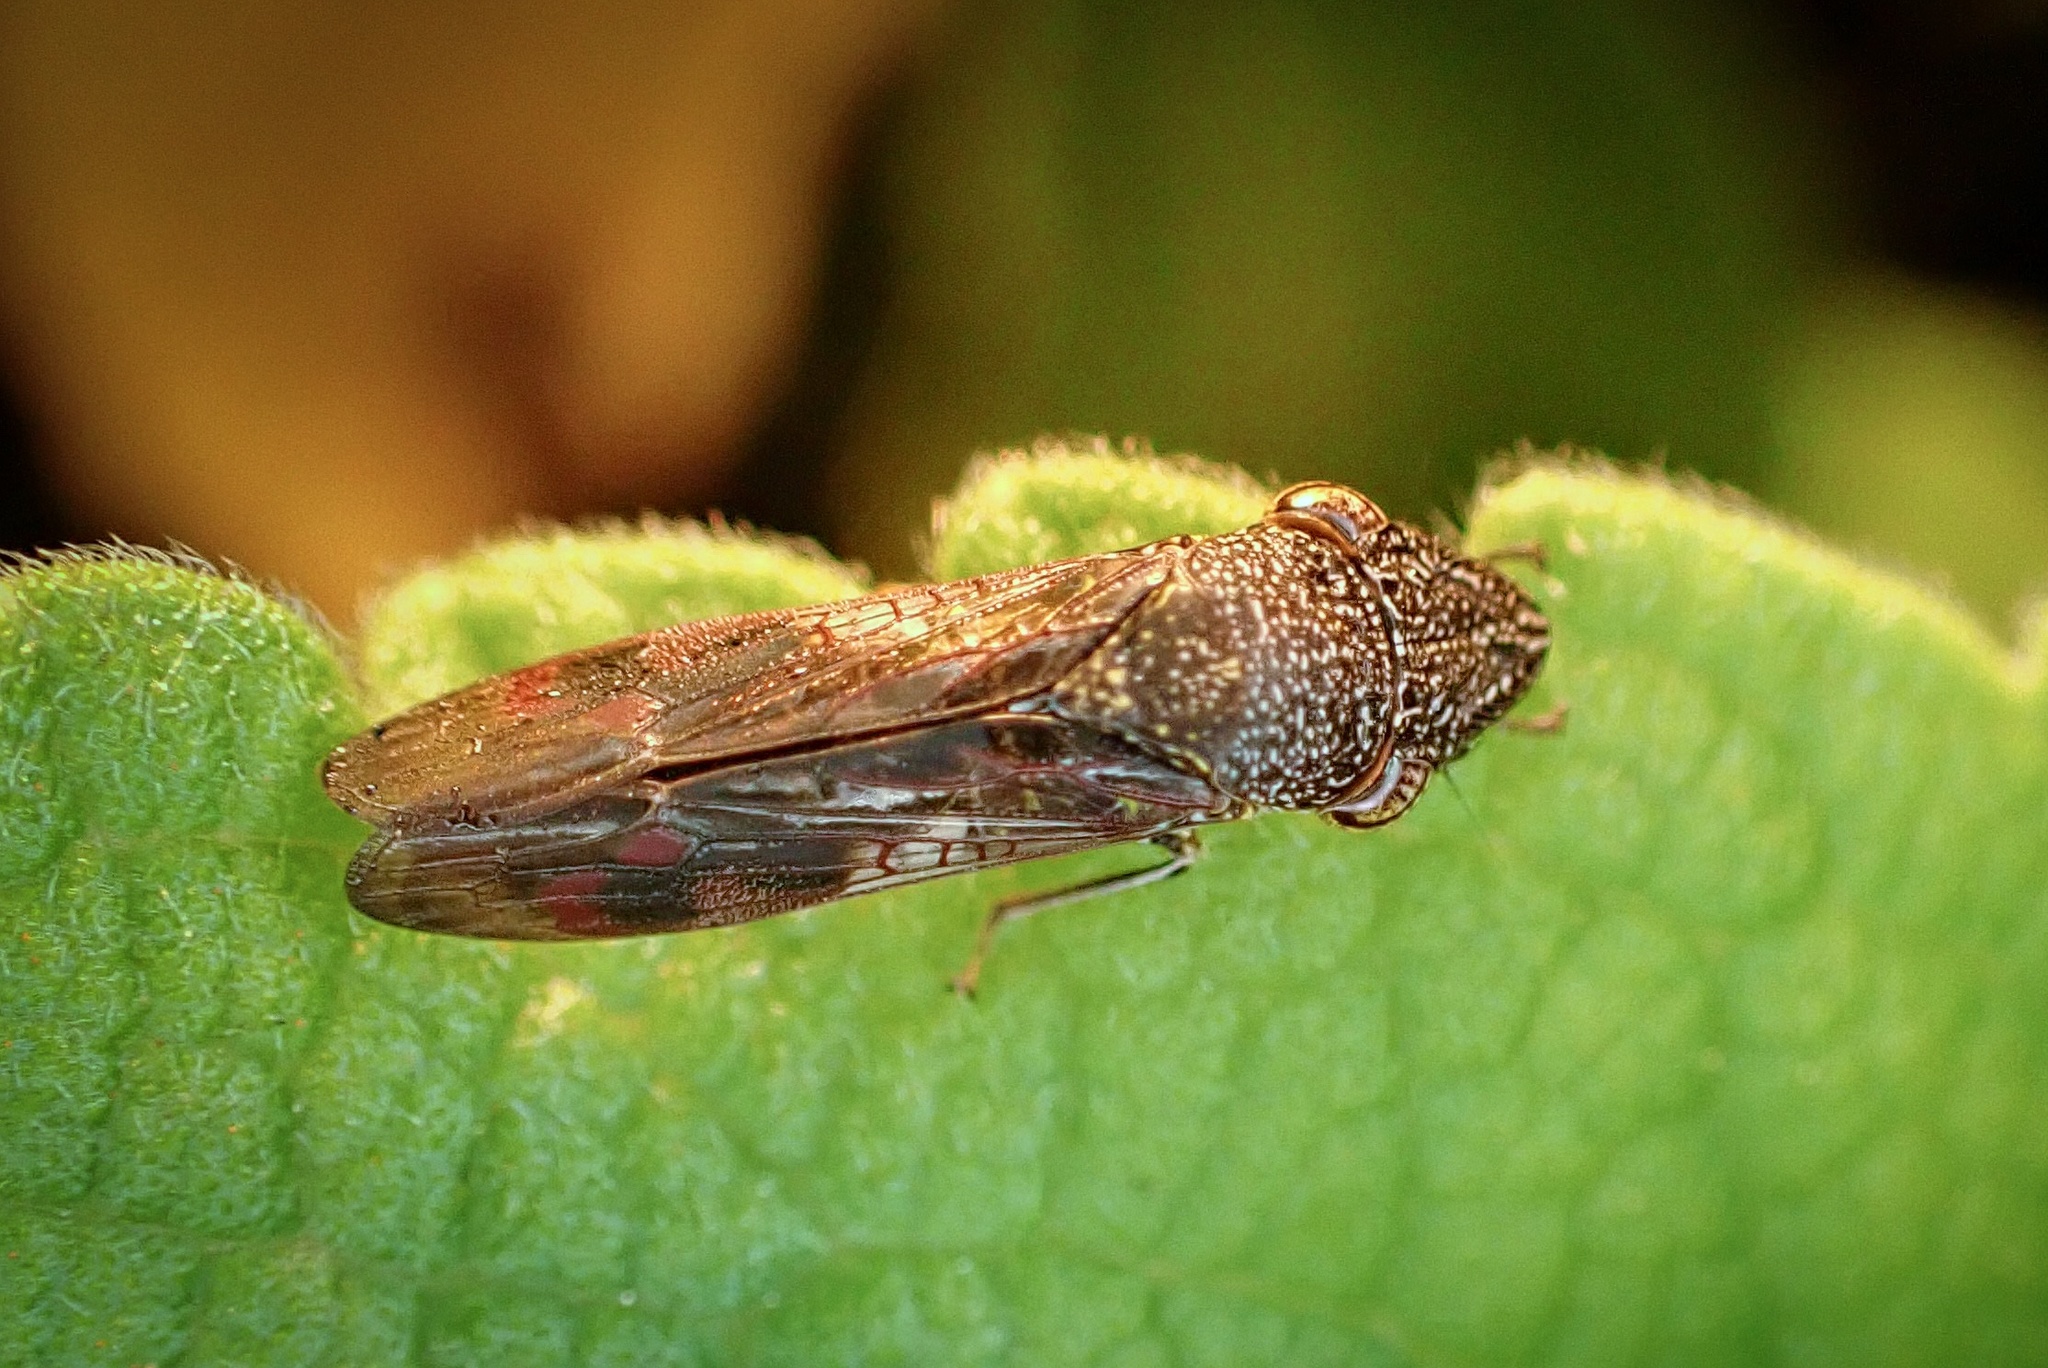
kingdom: Animalia
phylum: Arthropoda
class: Insecta
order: Hemiptera
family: Cicadellidae
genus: Homalodisca
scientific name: Homalodisca vitripennis
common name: Glassy-winged sharpshooter
